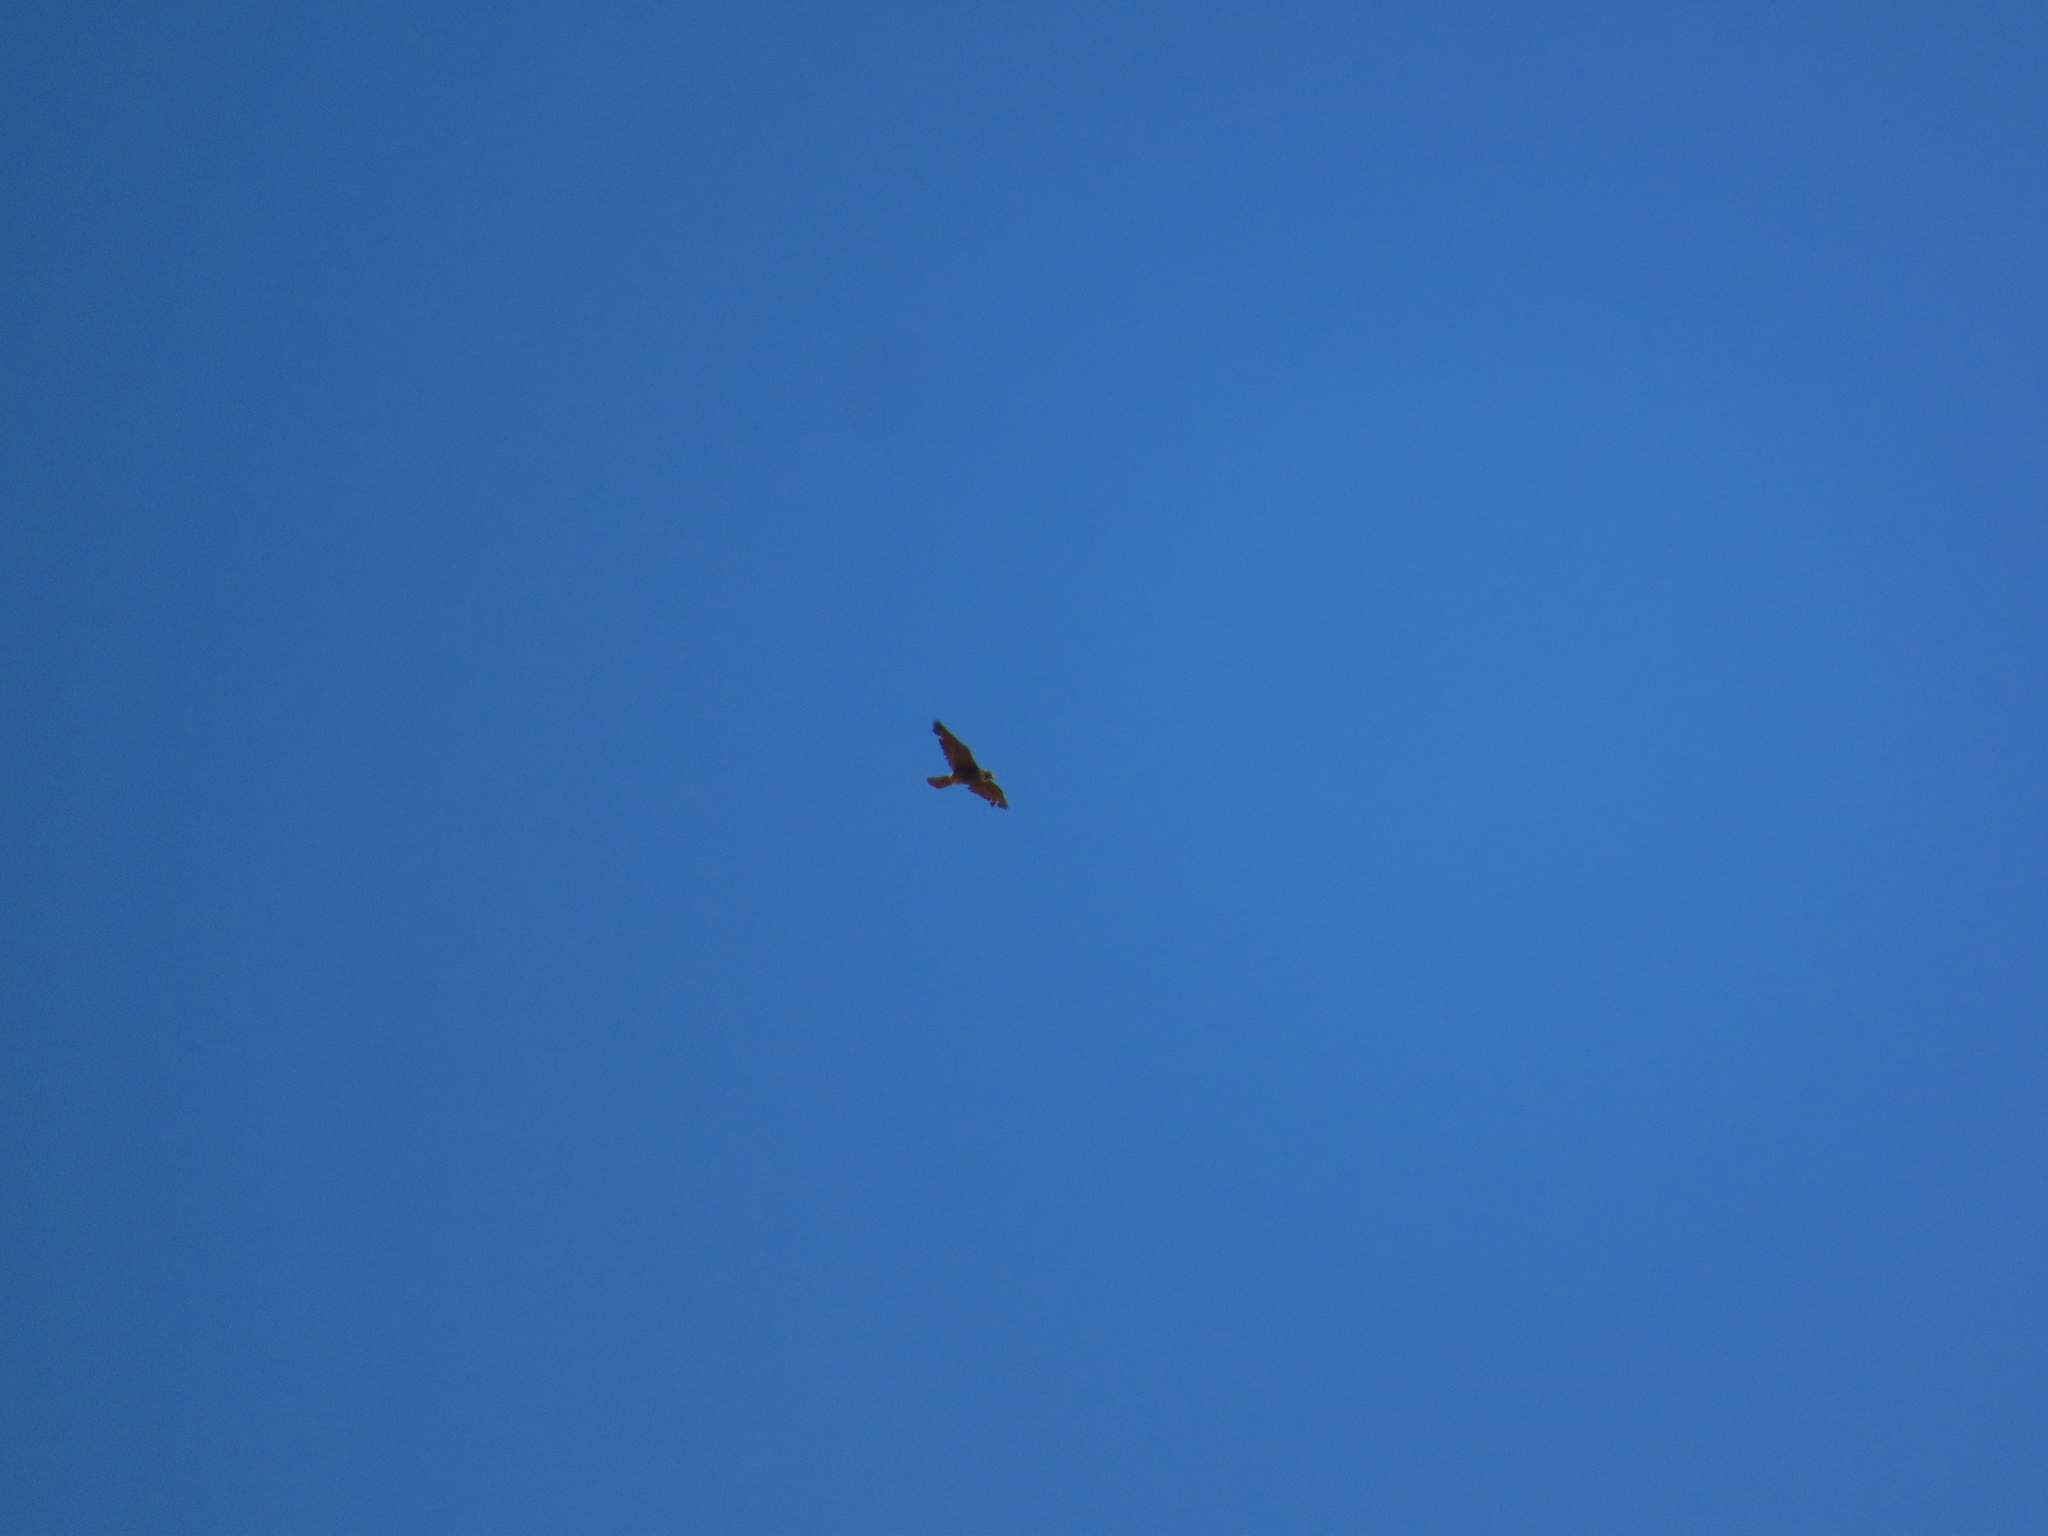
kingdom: Animalia
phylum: Chordata
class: Aves
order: Falconiformes
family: Falconidae
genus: Falco
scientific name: Falco peregrinus
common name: Peregrine falcon
